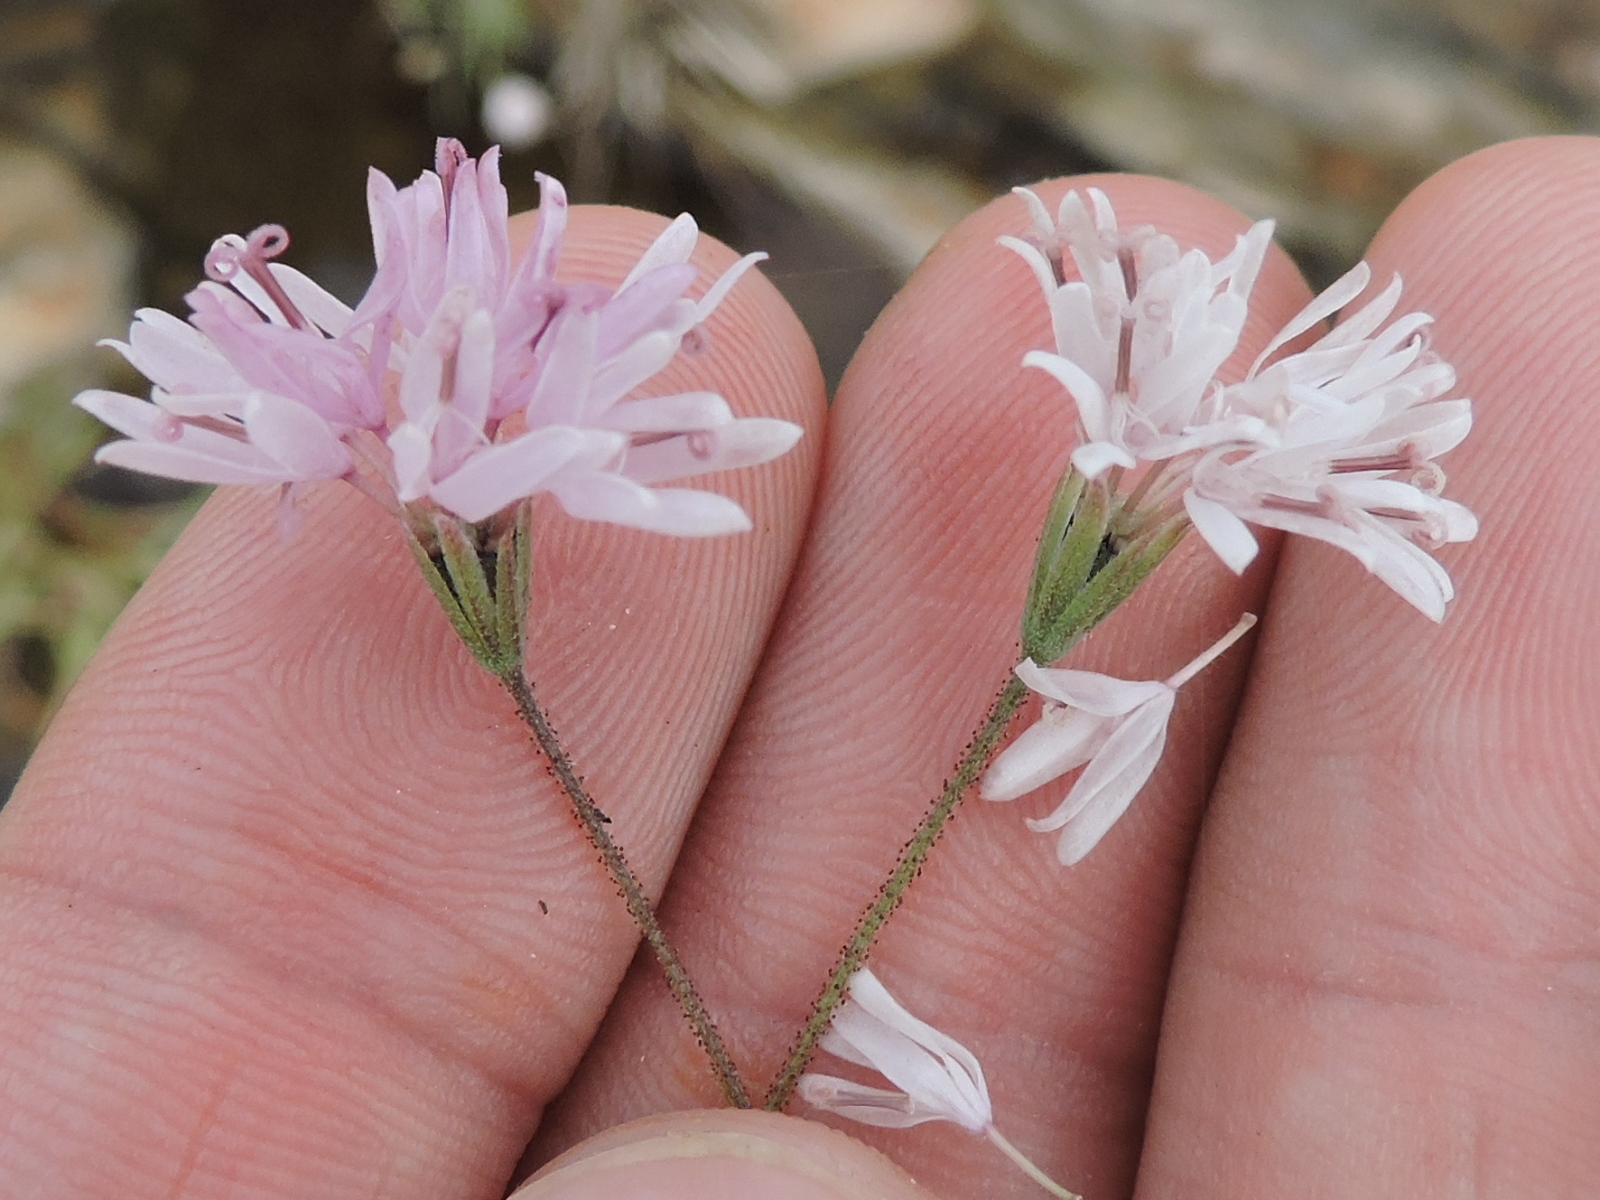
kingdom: Plantae
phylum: Tracheophyta
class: Magnoliopsida
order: Asterales
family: Asteraceae
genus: Palafoxia
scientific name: Palafoxia callosa
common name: Small palafox
